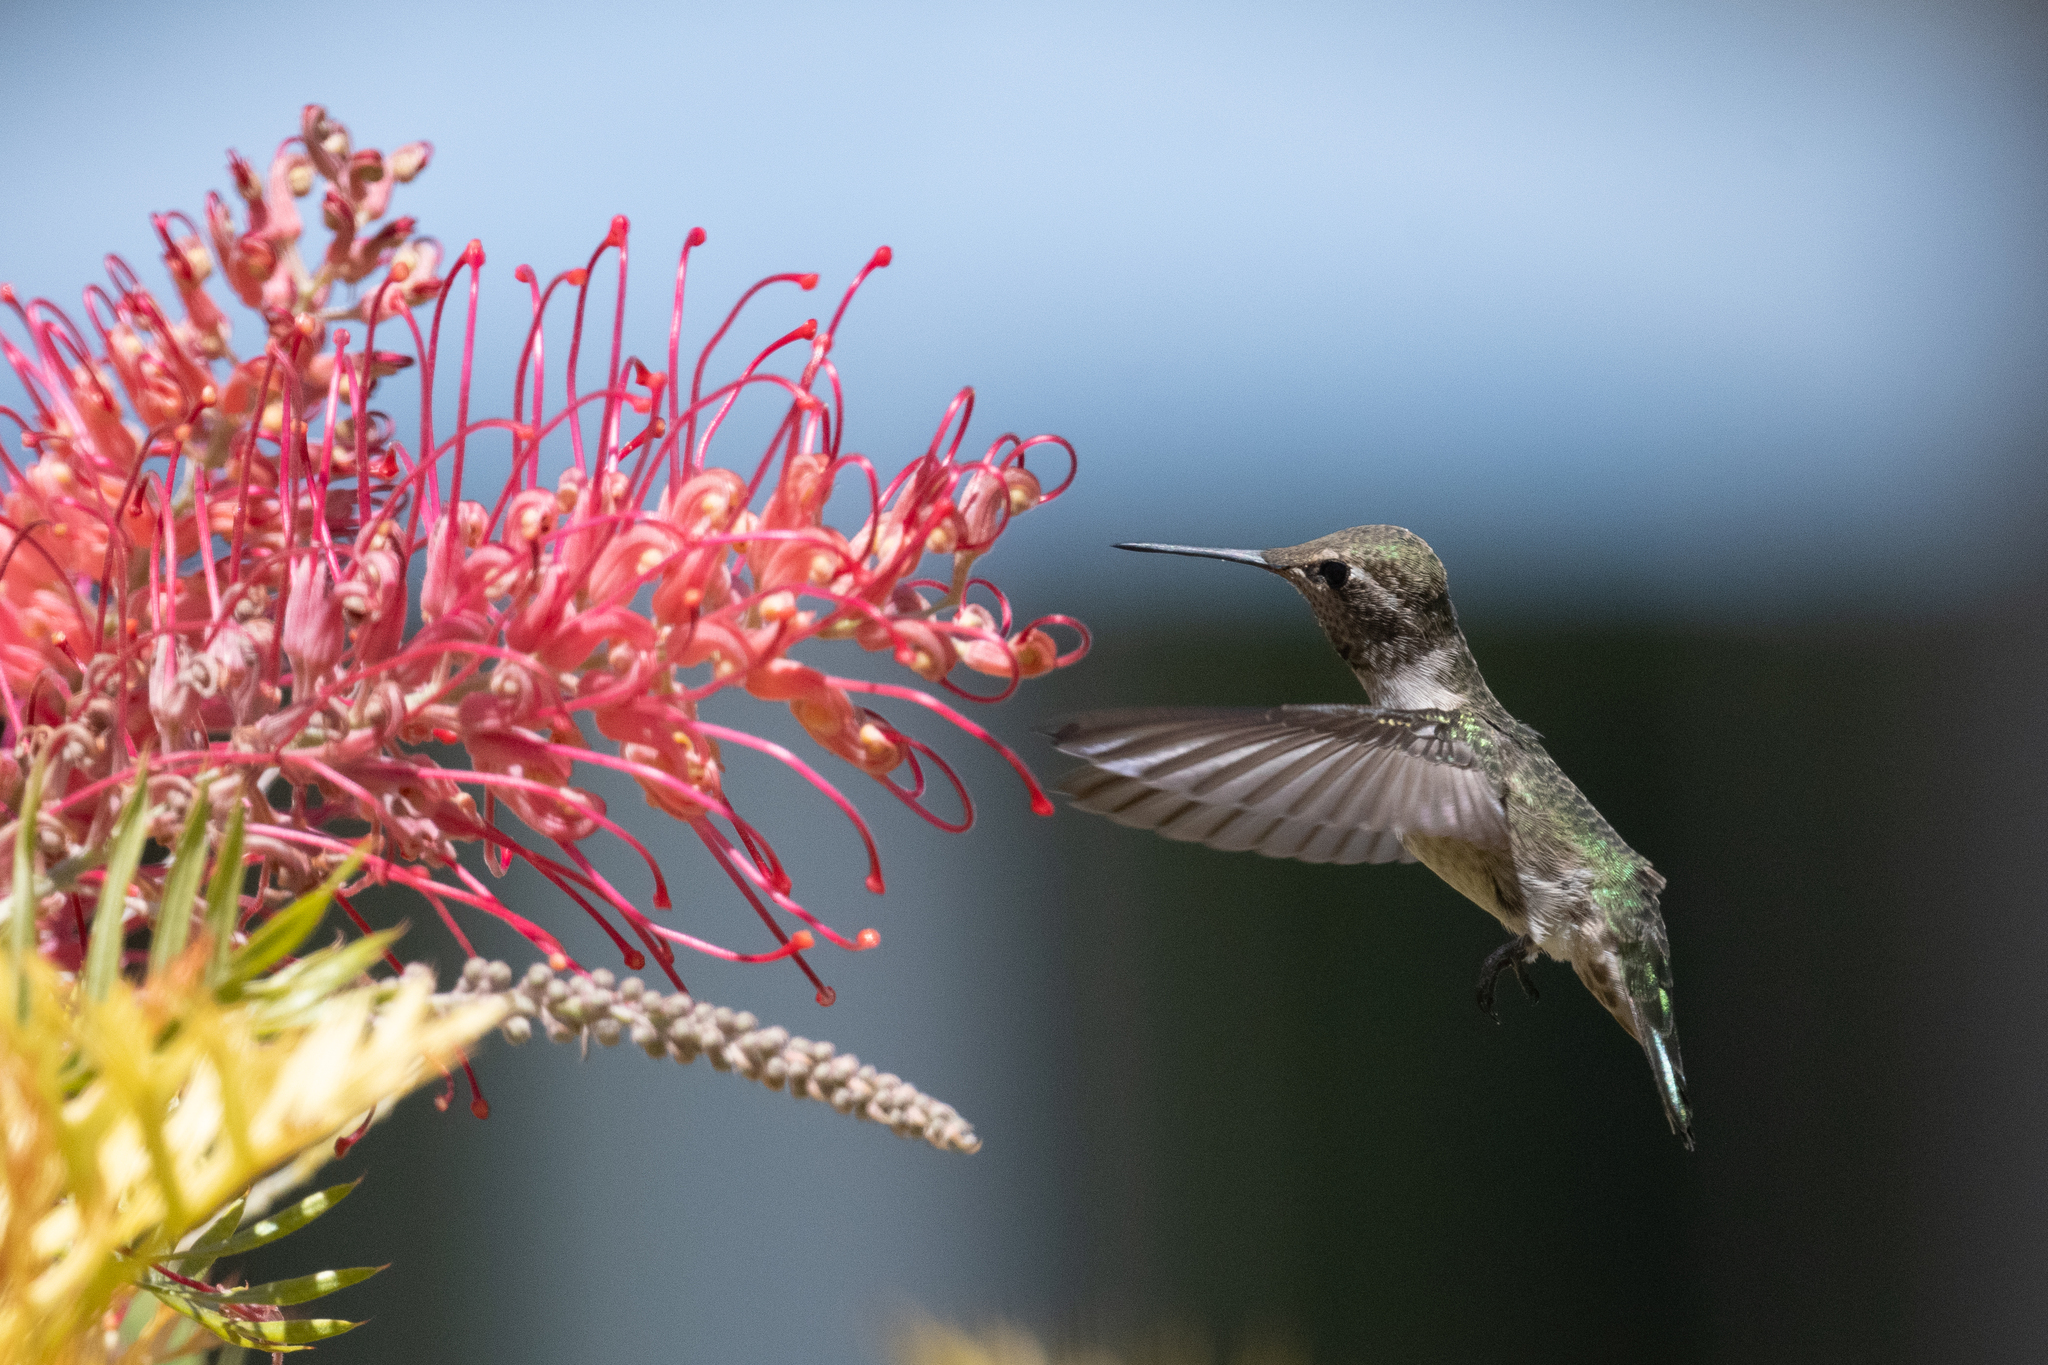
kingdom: Animalia
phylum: Chordata
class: Aves
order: Apodiformes
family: Trochilidae
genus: Calypte
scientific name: Calypte anna
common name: Anna's hummingbird
